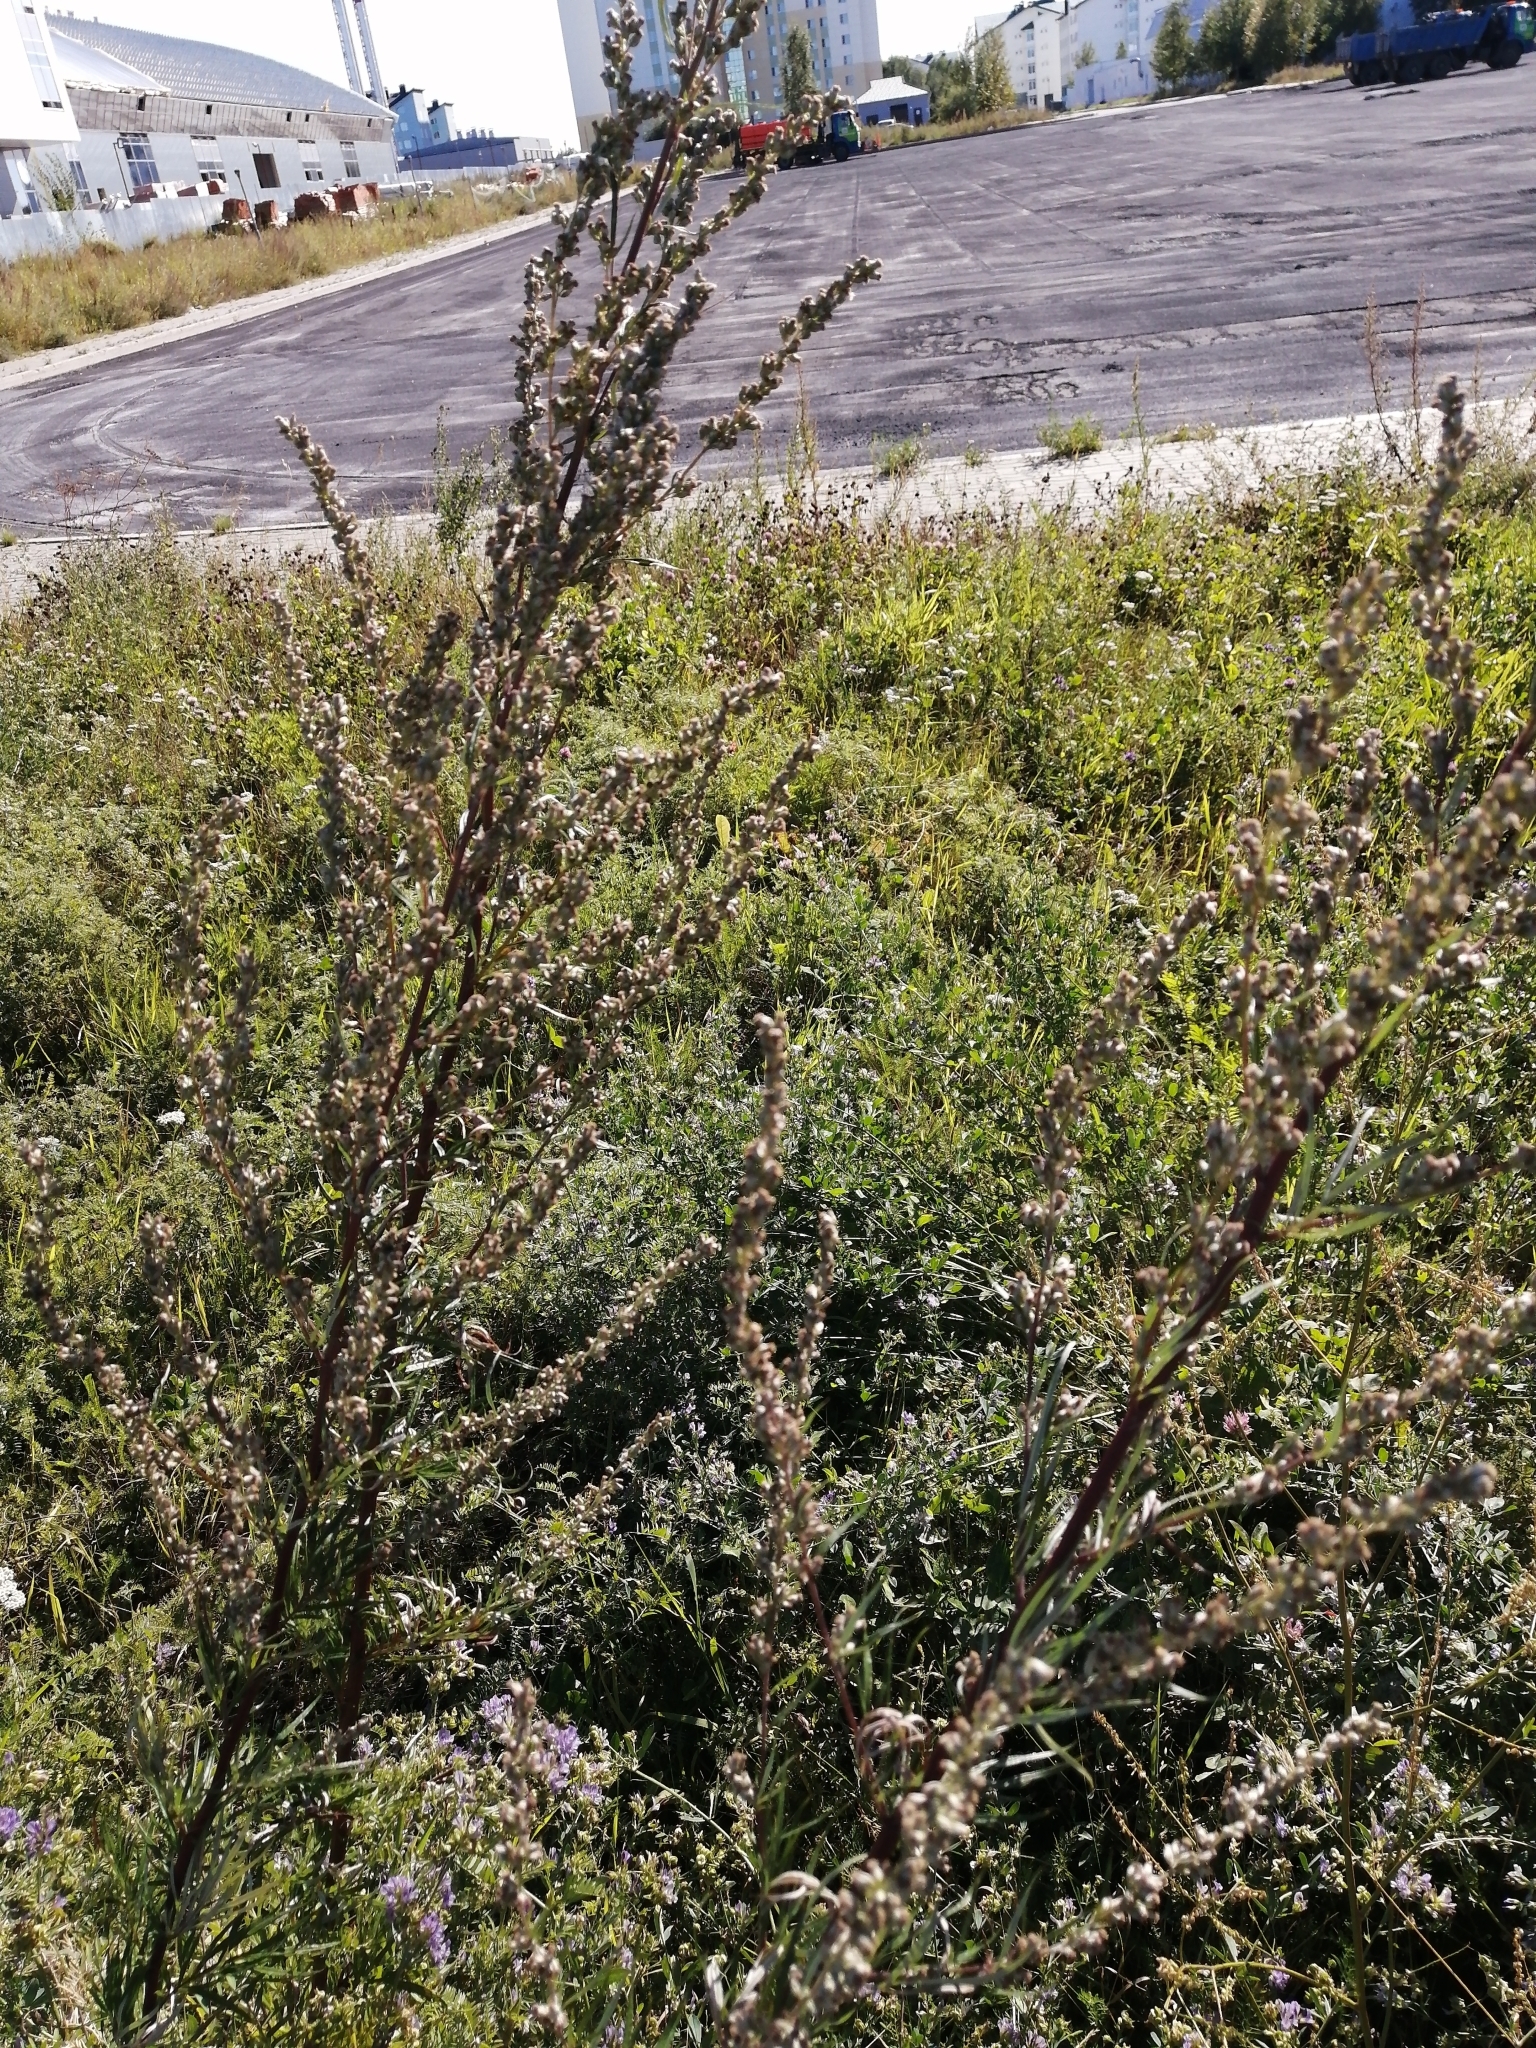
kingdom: Plantae
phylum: Tracheophyta
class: Magnoliopsida
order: Asterales
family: Asteraceae
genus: Artemisia
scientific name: Artemisia vulgaris
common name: Mugwort
